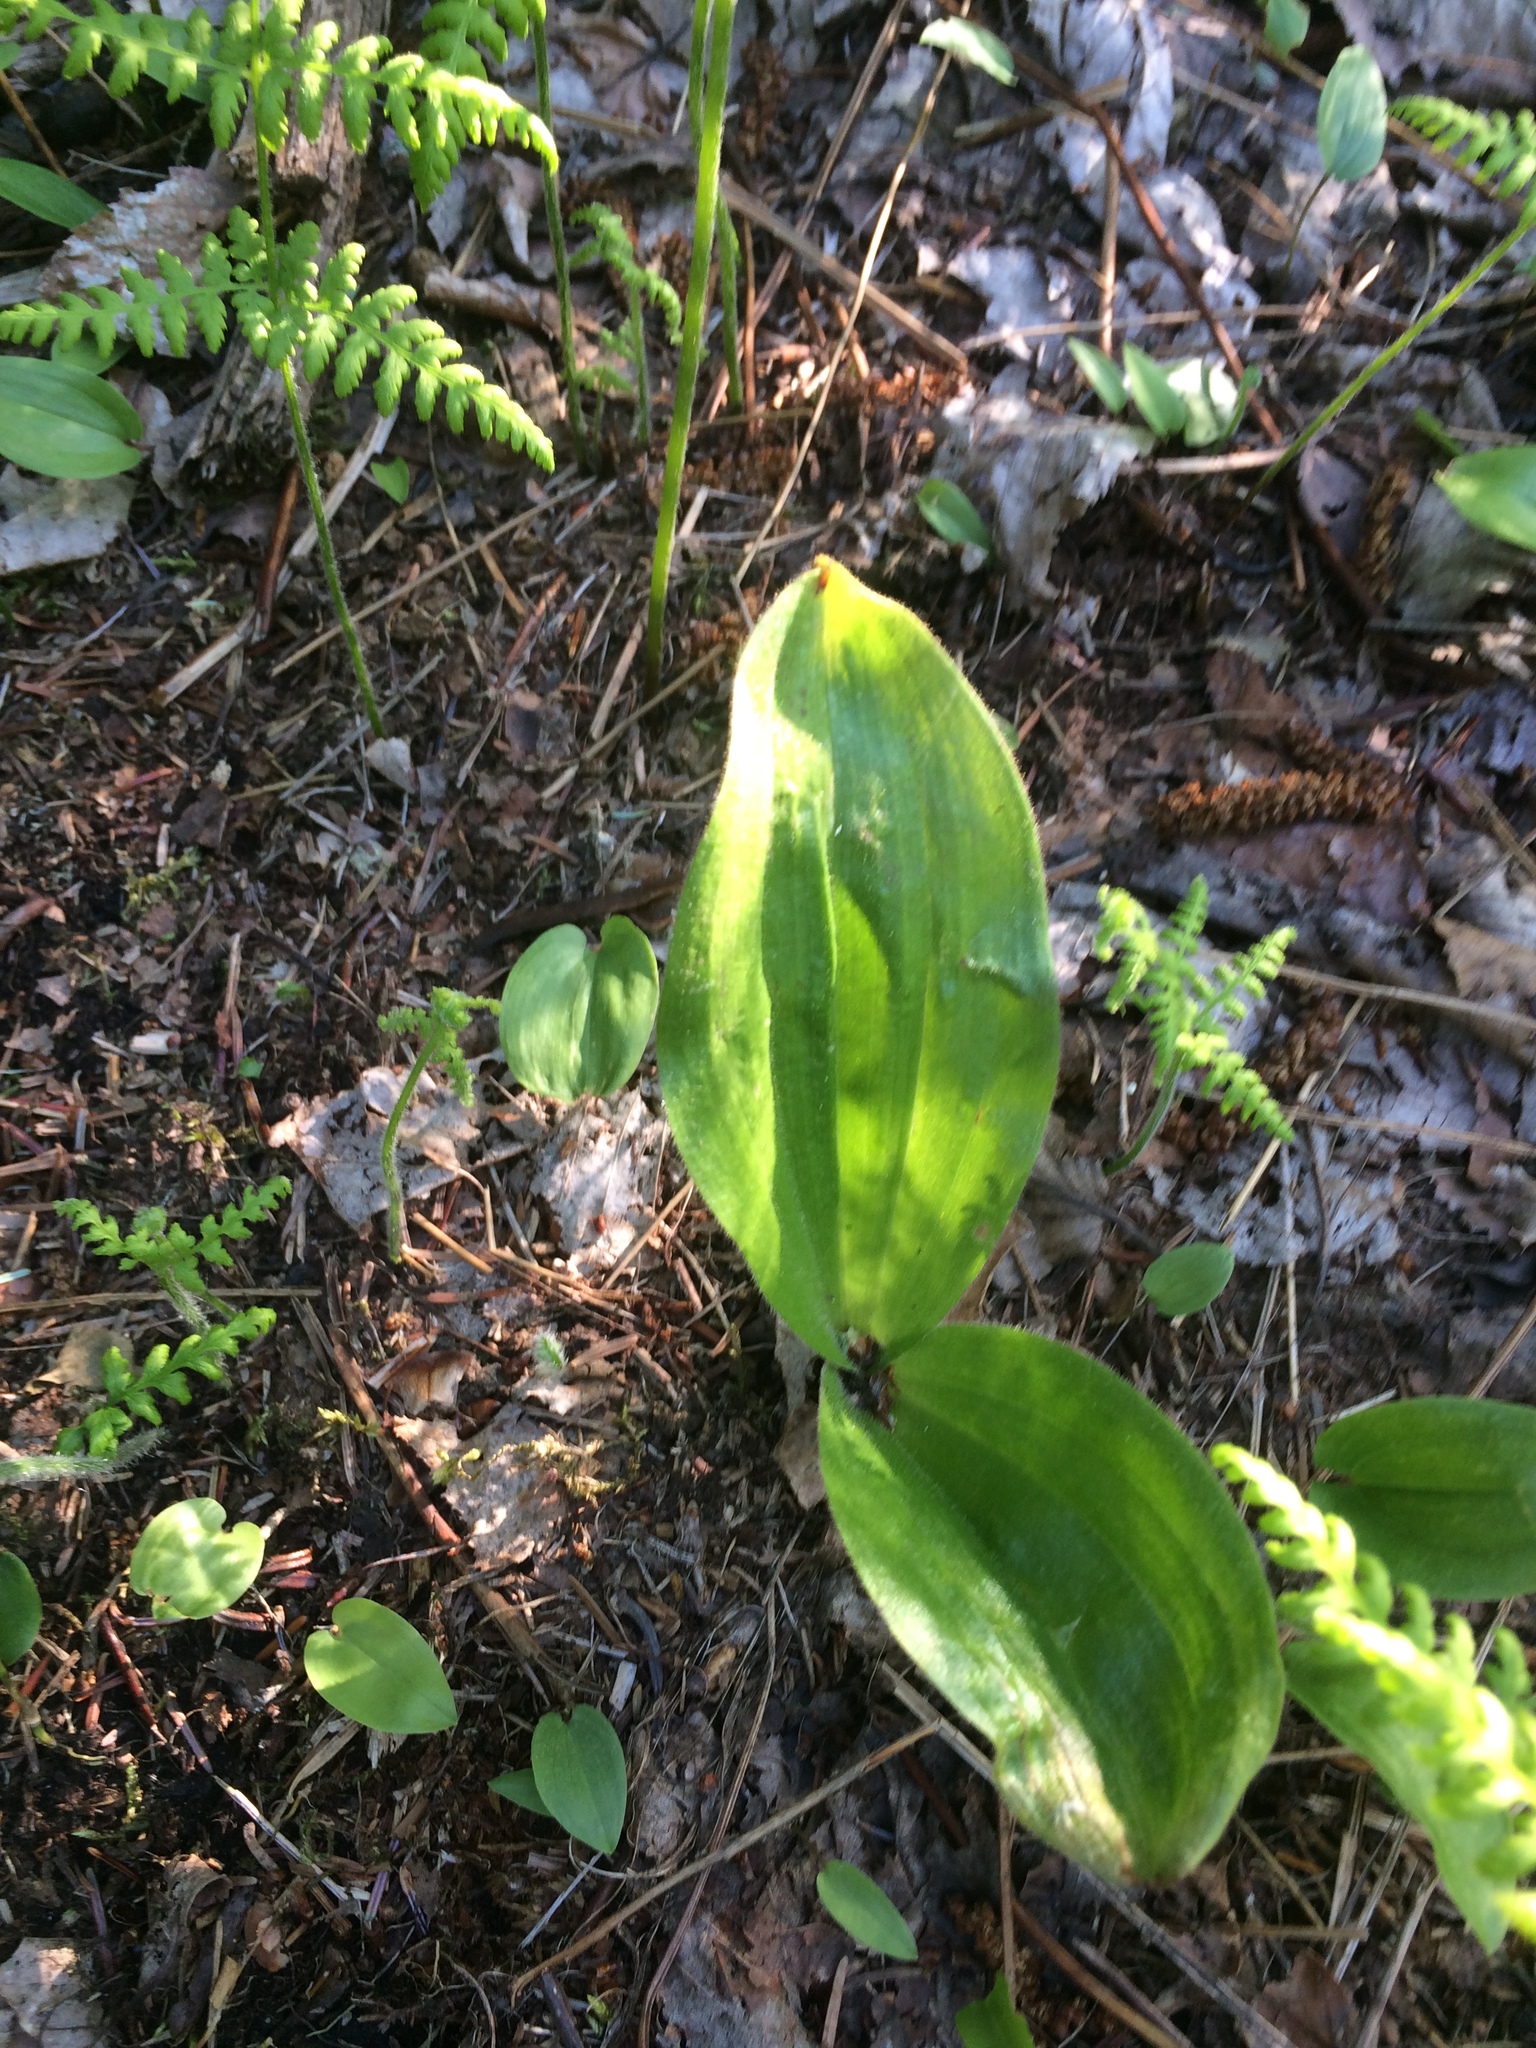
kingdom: Plantae
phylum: Tracheophyta
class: Liliopsida
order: Asparagales
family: Orchidaceae
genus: Cypripedium
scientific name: Cypripedium acaule
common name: Pink lady's-slipper
